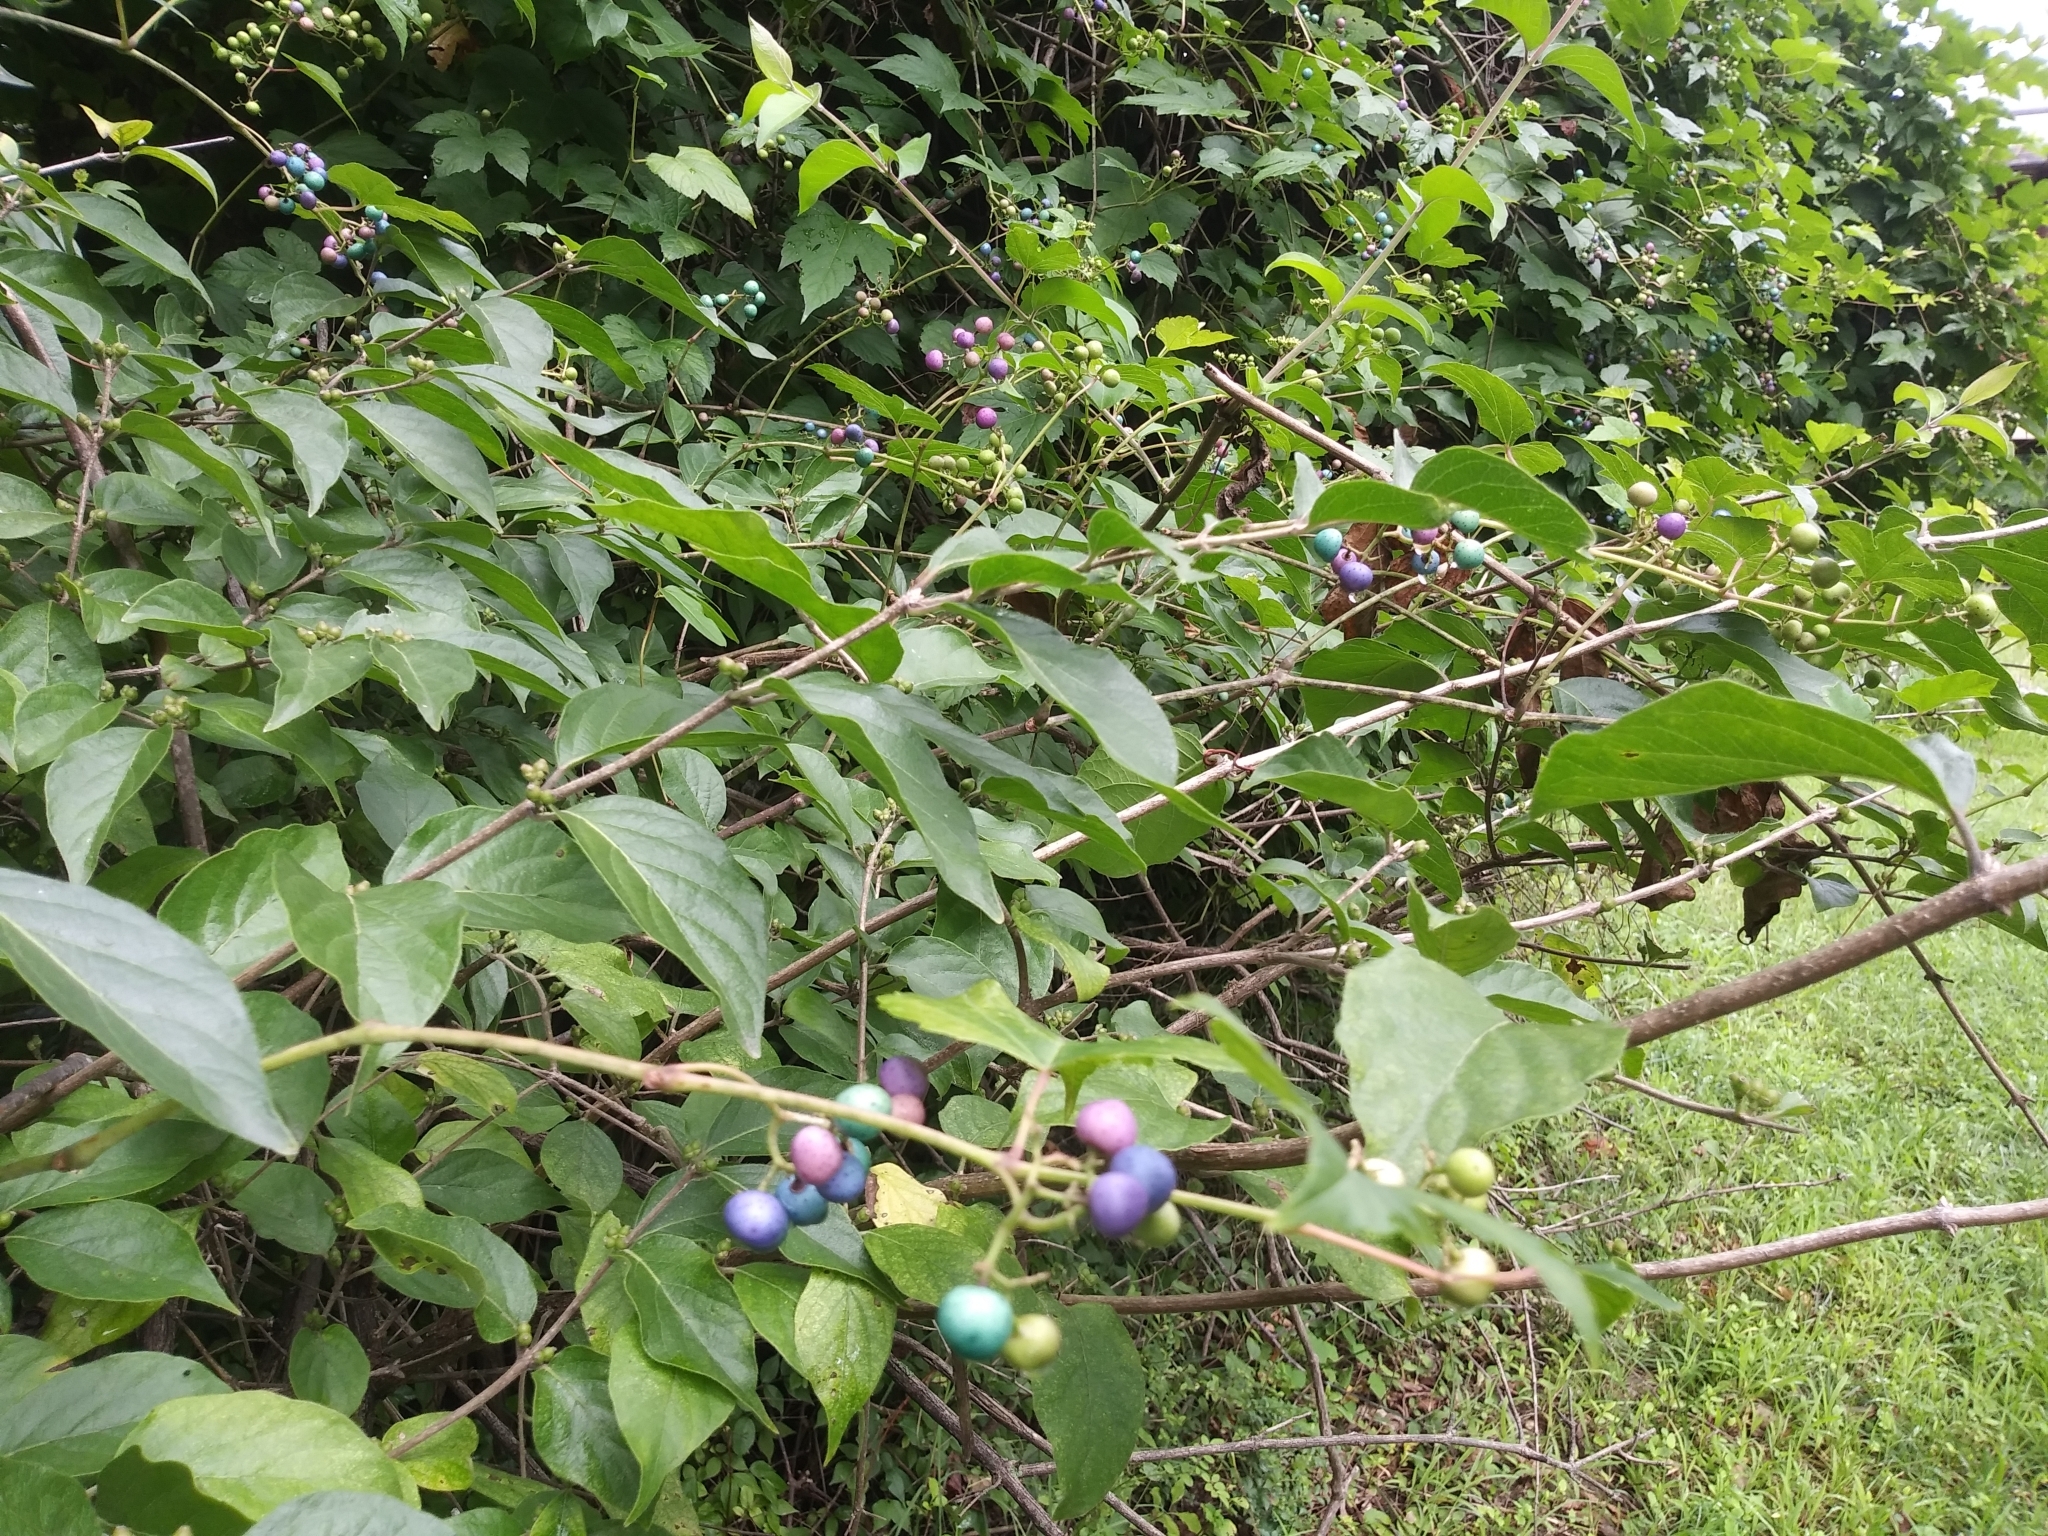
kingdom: Plantae
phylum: Tracheophyta
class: Magnoliopsida
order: Vitales
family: Vitaceae
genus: Ampelopsis
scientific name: Ampelopsis glandulosa
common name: Amur peppervine
